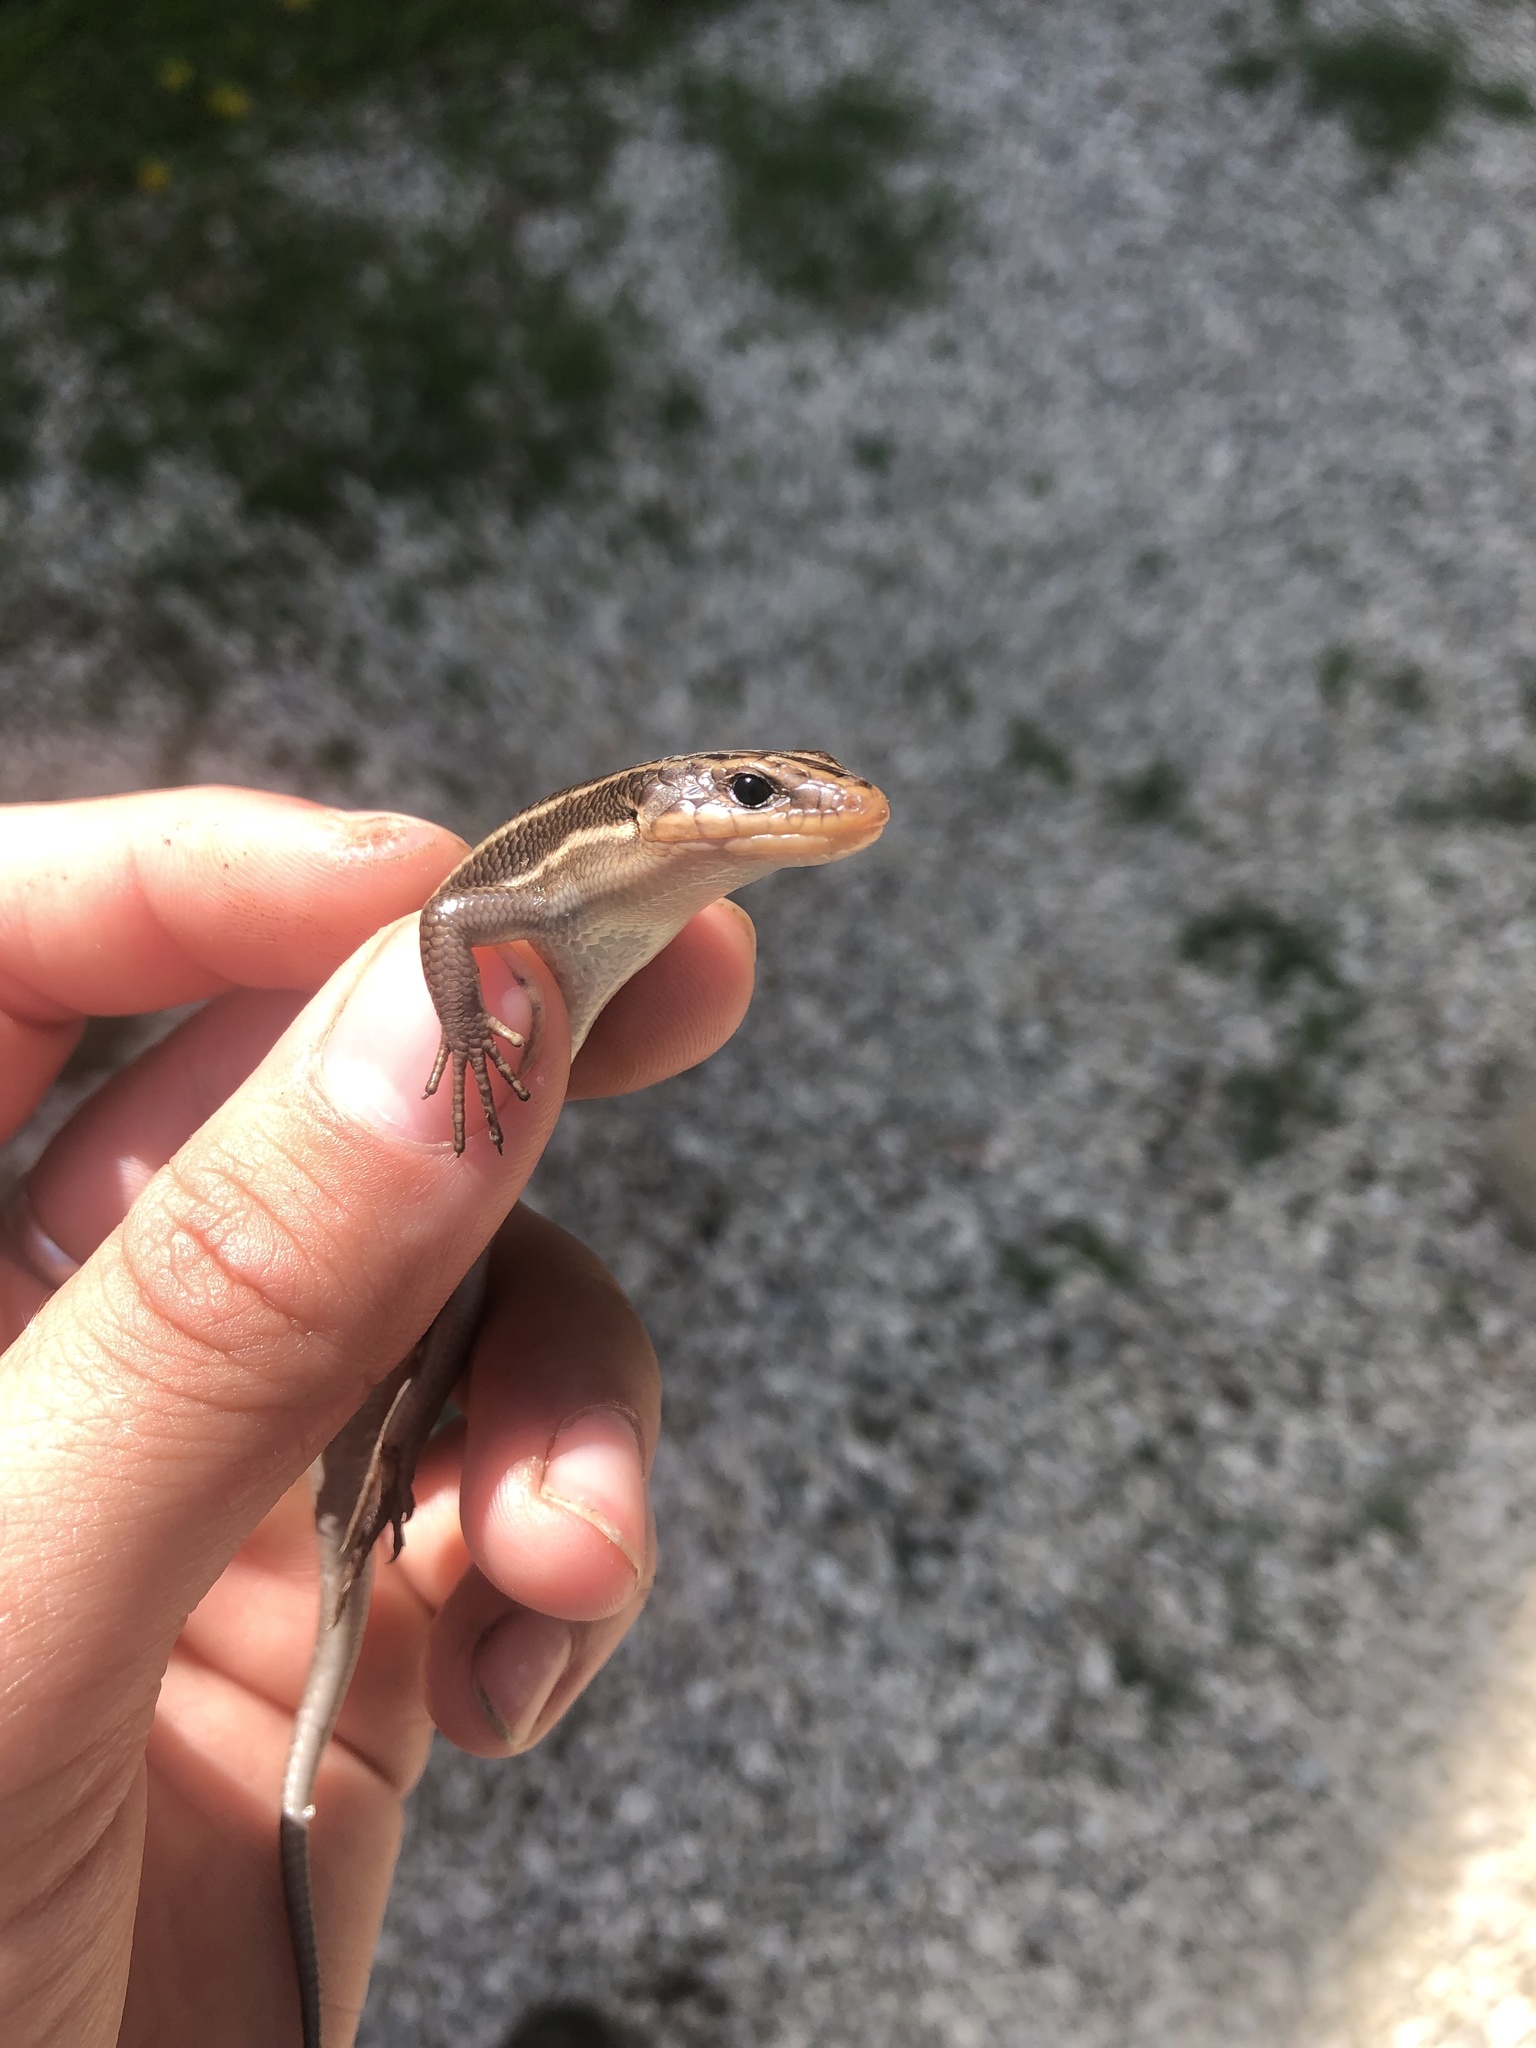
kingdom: Animalia
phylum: Chordata
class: Squamata
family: Scincidae
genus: Plestiodon
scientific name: Plestiodon fasciatus
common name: Five-lined skink
